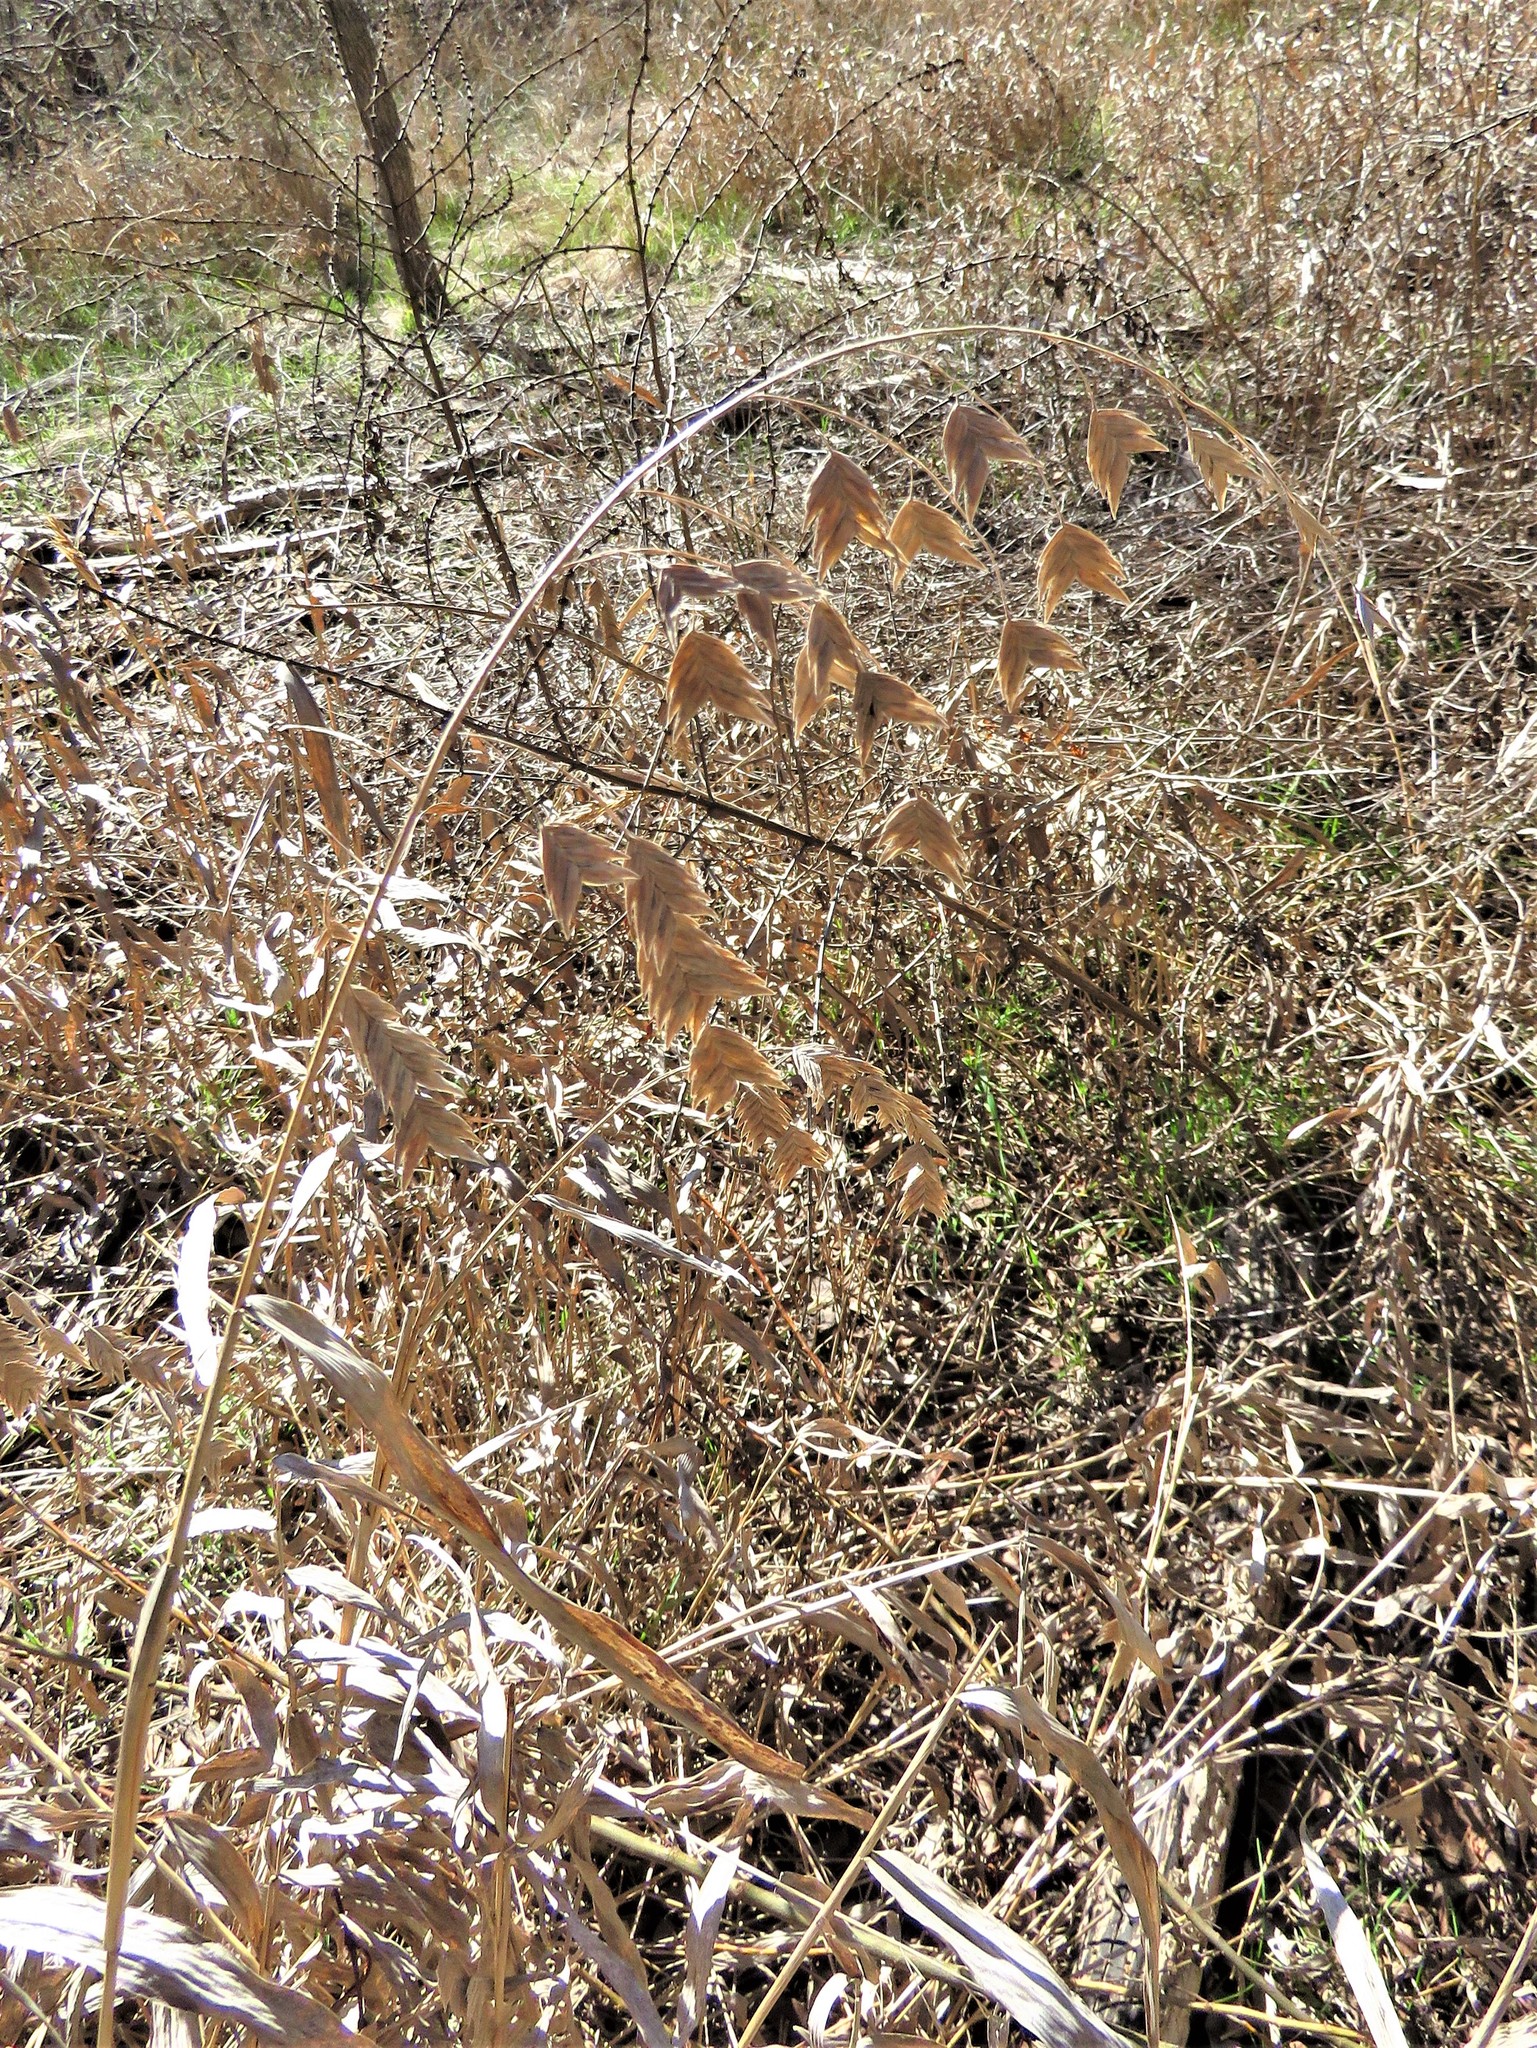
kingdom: Plantae
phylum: Tracheophyta
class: Liliopsida
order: Poales
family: Poaceae
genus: Chasmanthium
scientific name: Chasmanthium latifolium
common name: Broad-leaved chasmanthium
